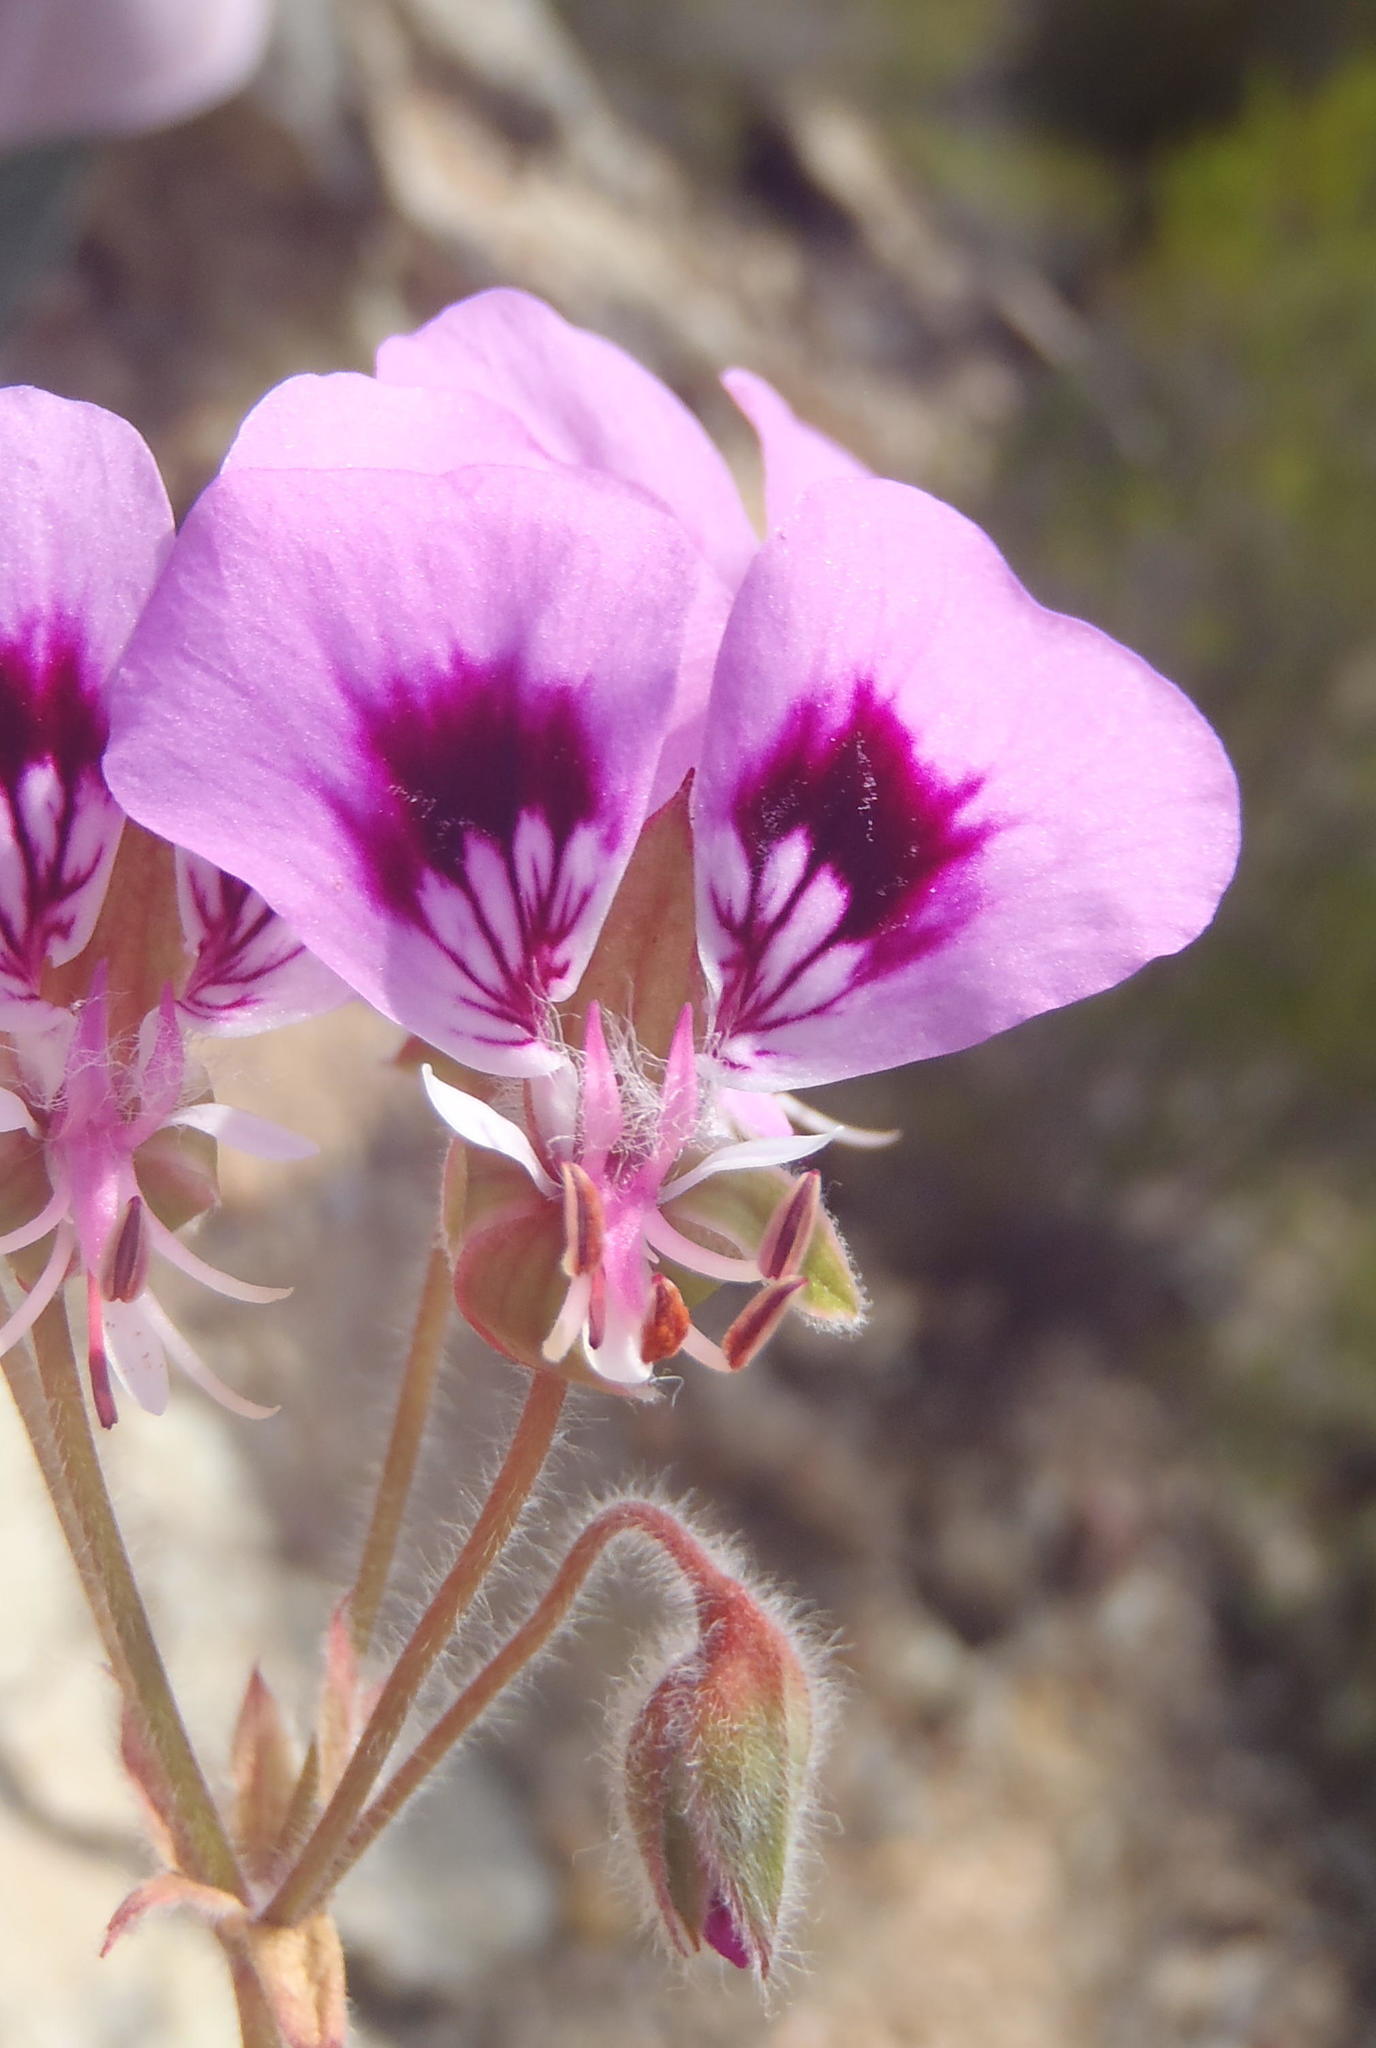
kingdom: Plantae
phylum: Tracheophyta
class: Magnoliopsida
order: Geraniales
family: Geraniaceae
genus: Pelargonium
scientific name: Pelargonium ovale
